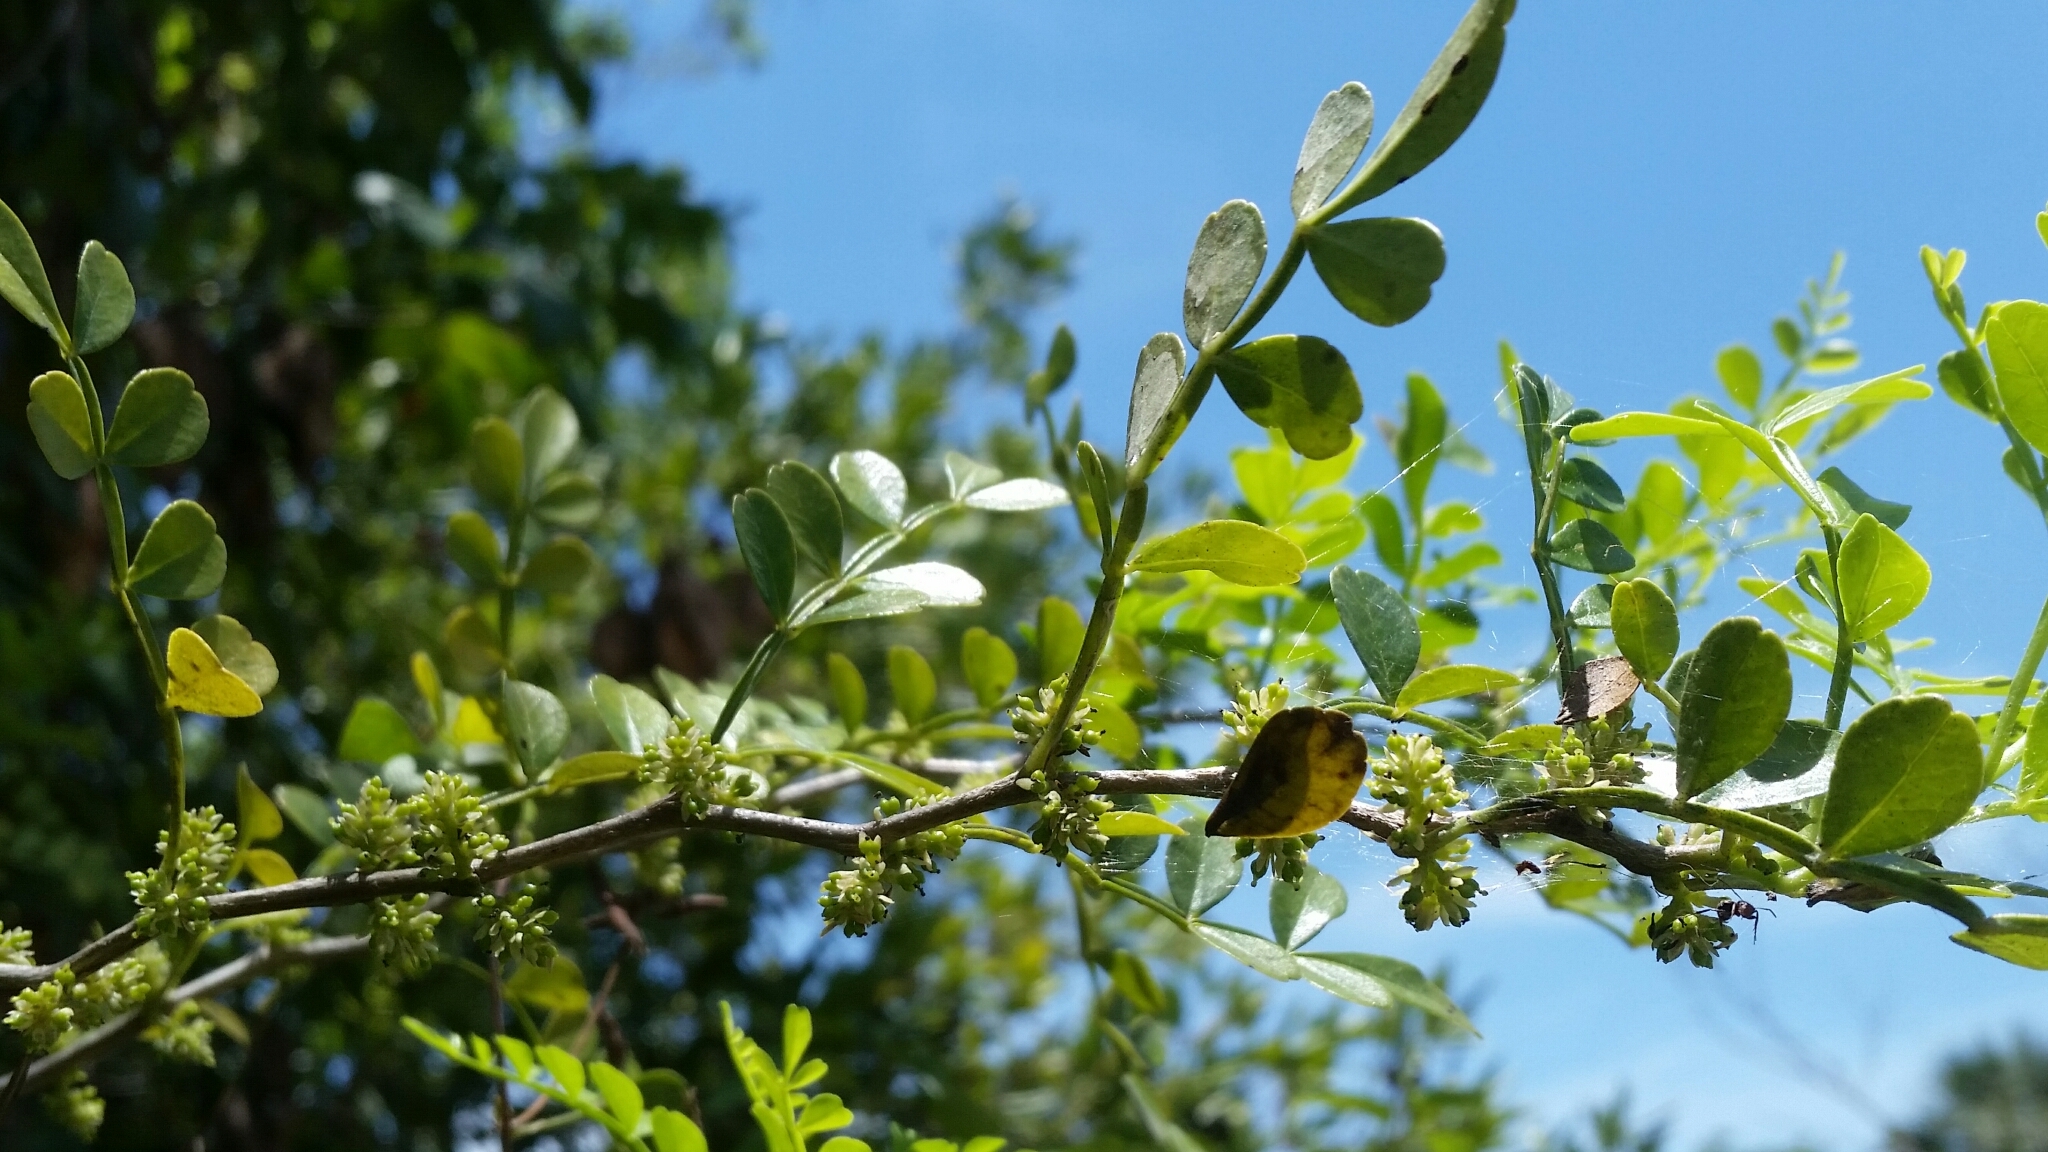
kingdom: Plantae
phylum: Tracheophyta
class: Magnoliopsida
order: Sapindales
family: Rutaceae
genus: Zanthoxylum
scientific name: Zanthoxylum fagara
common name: Lime prickly-ash
